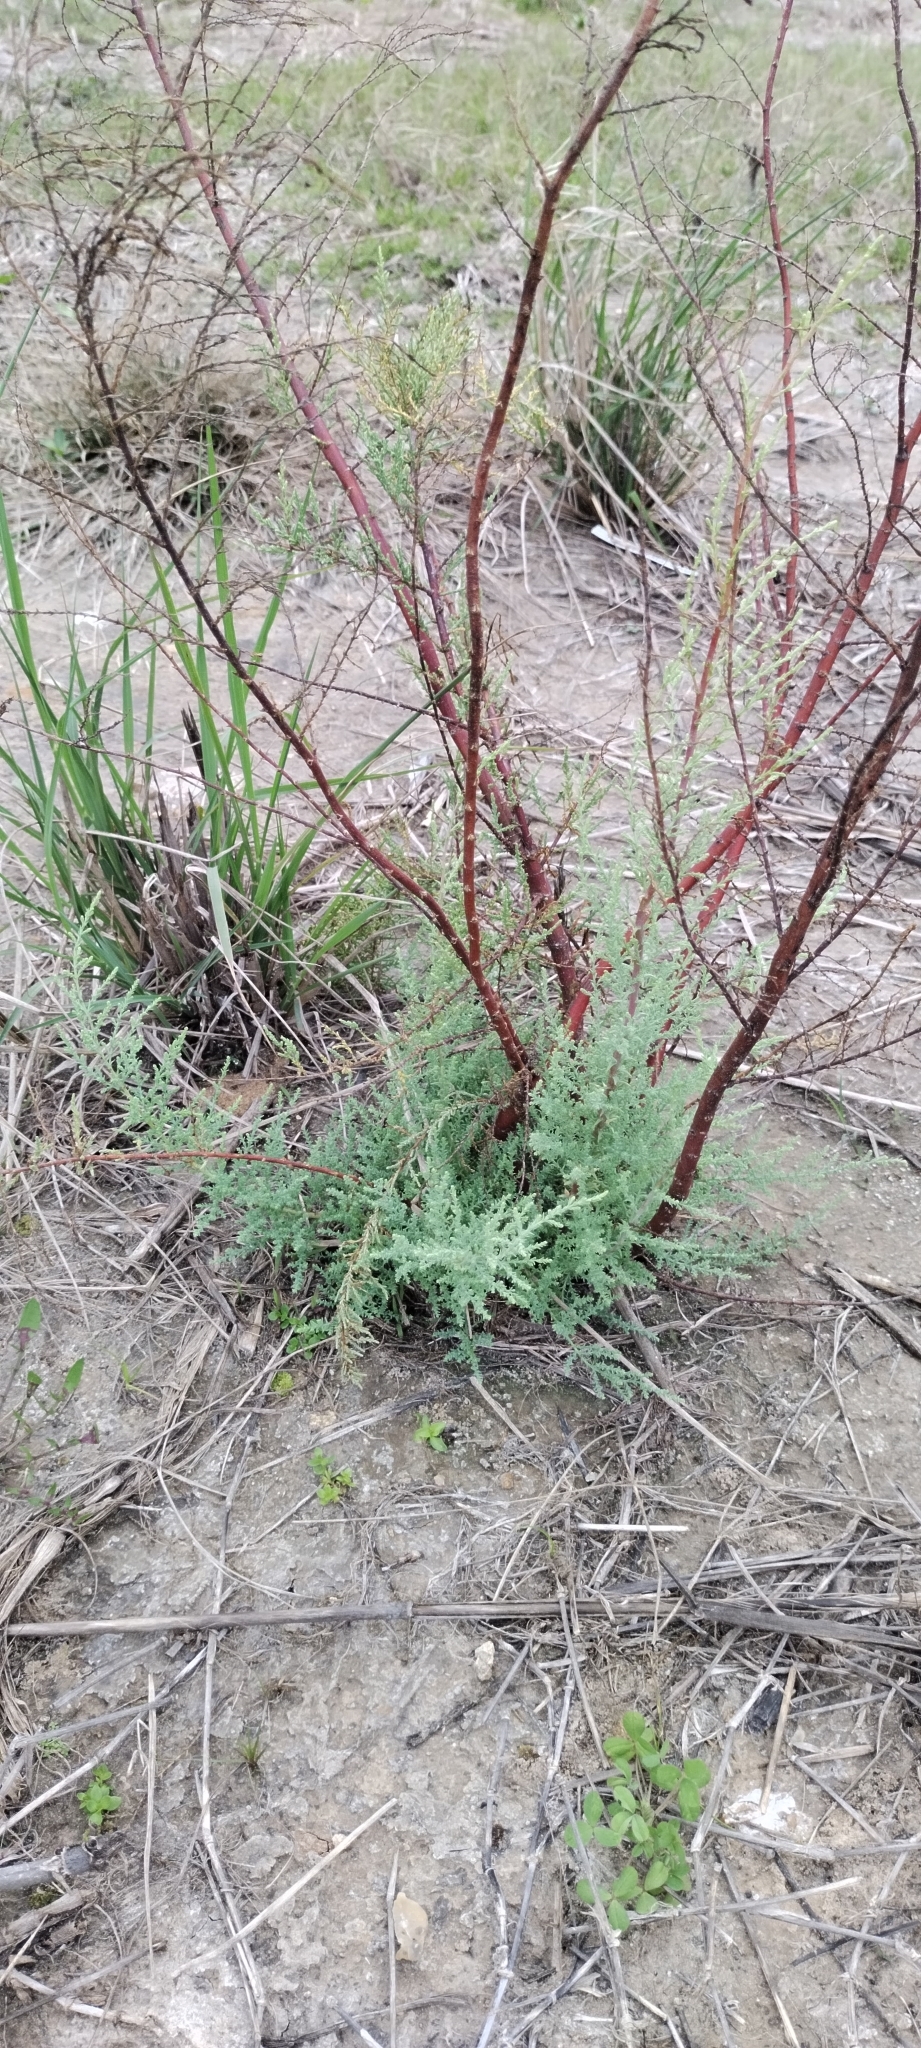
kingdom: Plantae
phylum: Tracheophyta
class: Magnoliopsida
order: Caryophyllales
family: Tamaricaceae
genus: Tamarix
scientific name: Tamarix ramosissima
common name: Pink tamarisk
